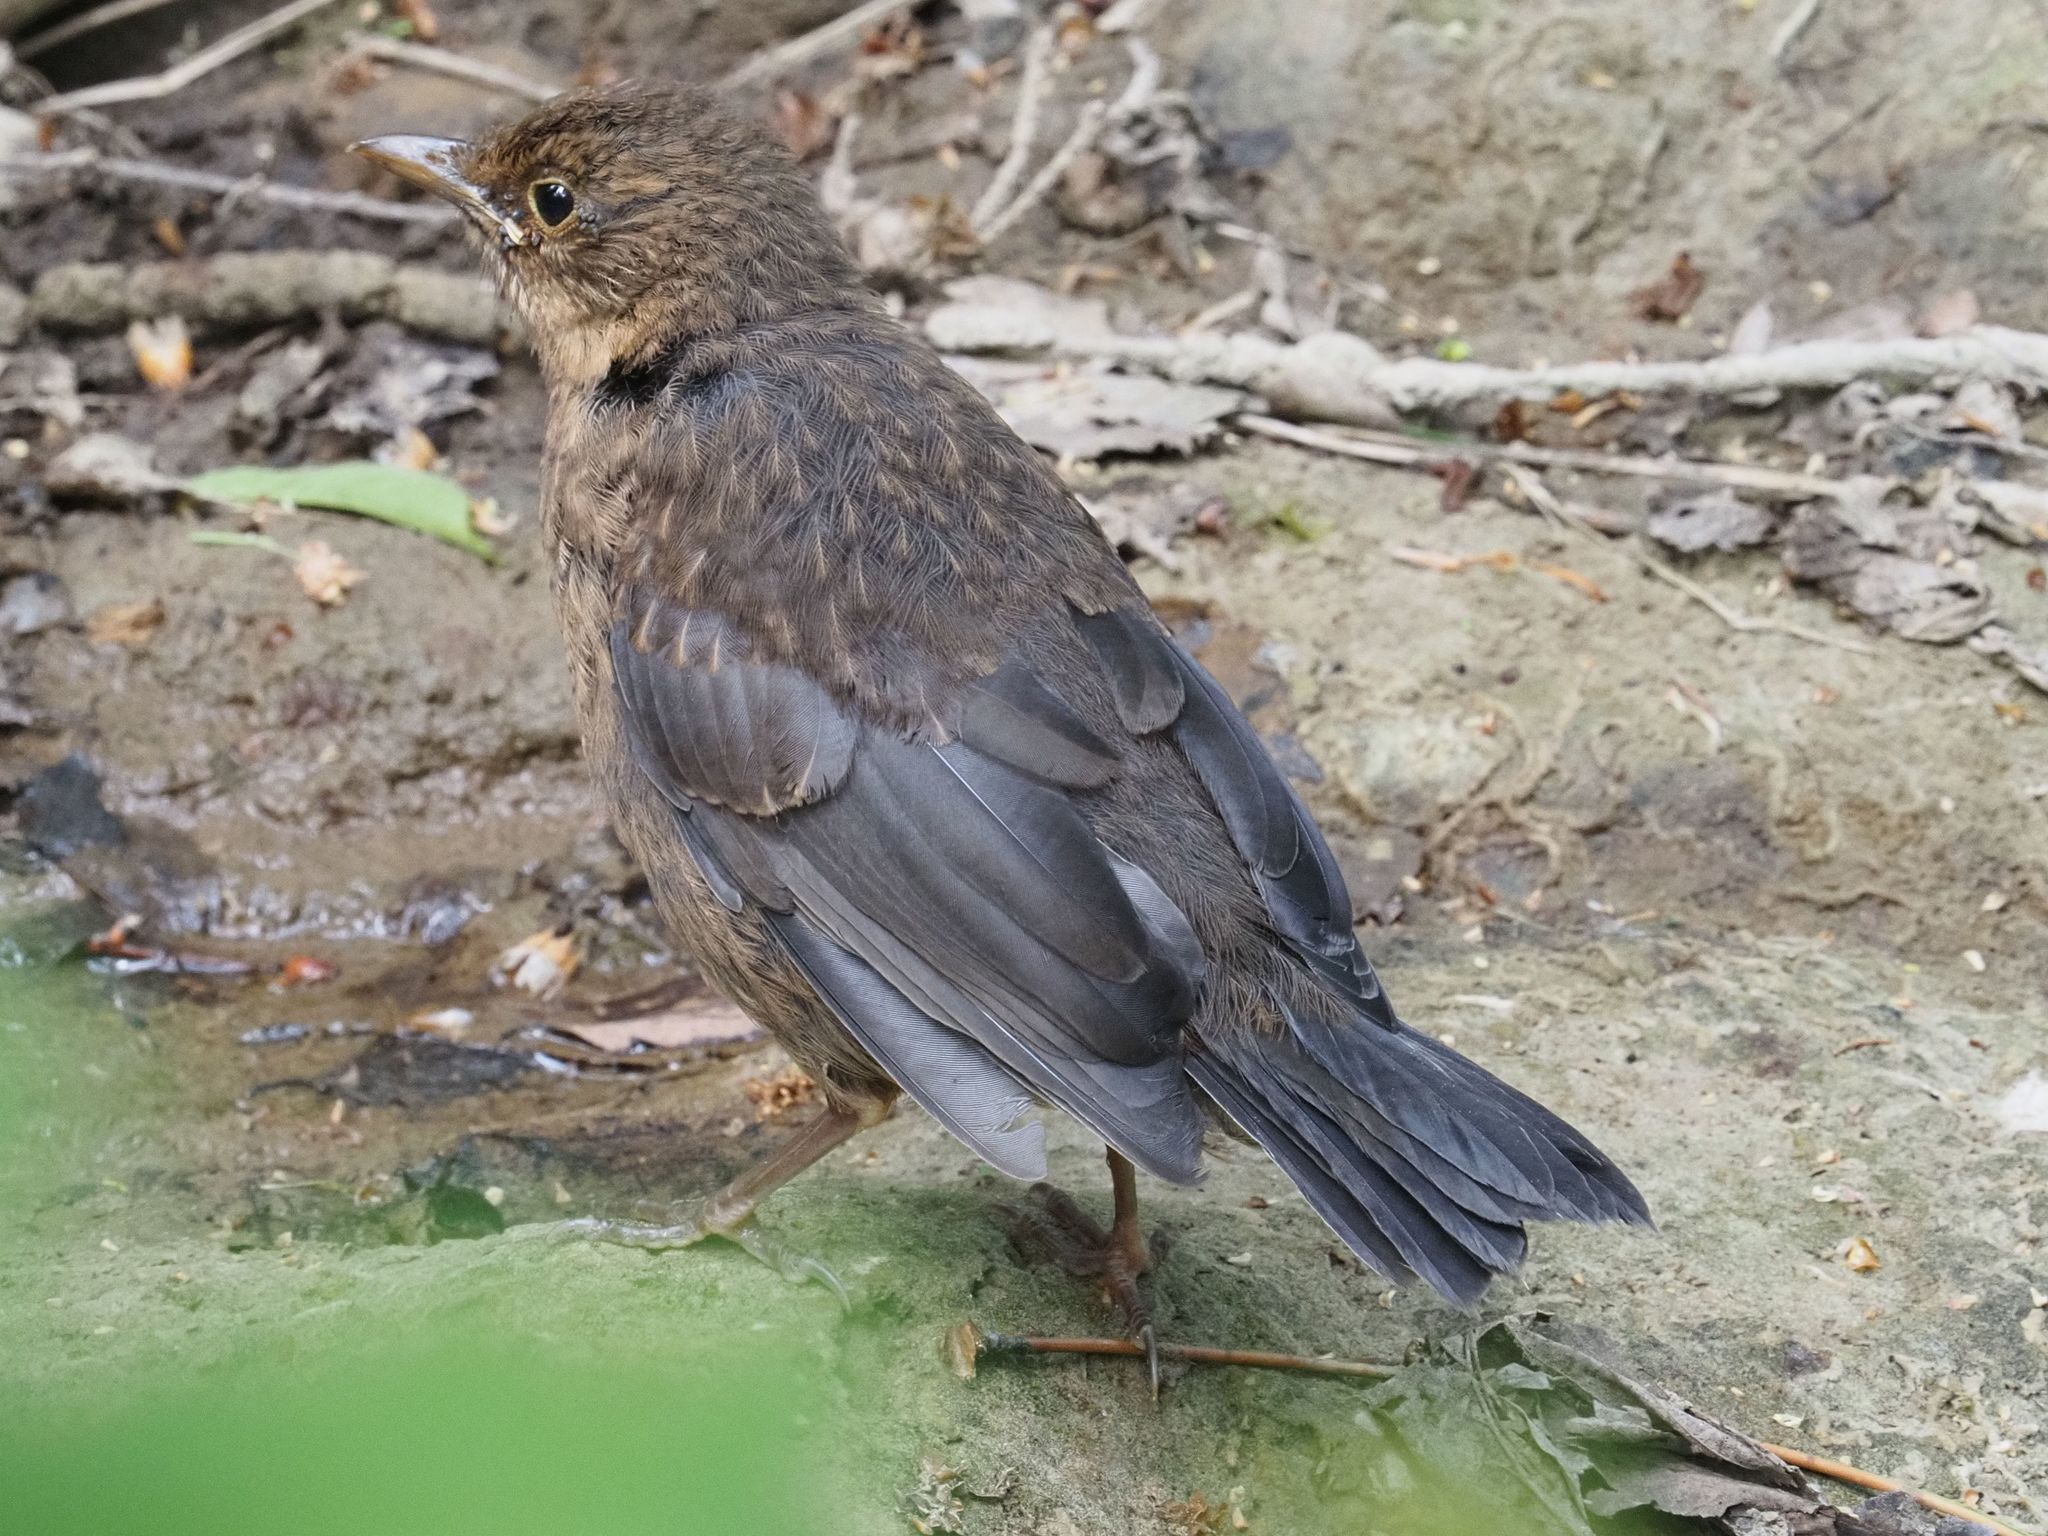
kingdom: Animalia
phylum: Chordata
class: Aves
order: Passeriformes
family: Turdidae
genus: Turdus
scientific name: Turdus merula
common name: Common blackbird
